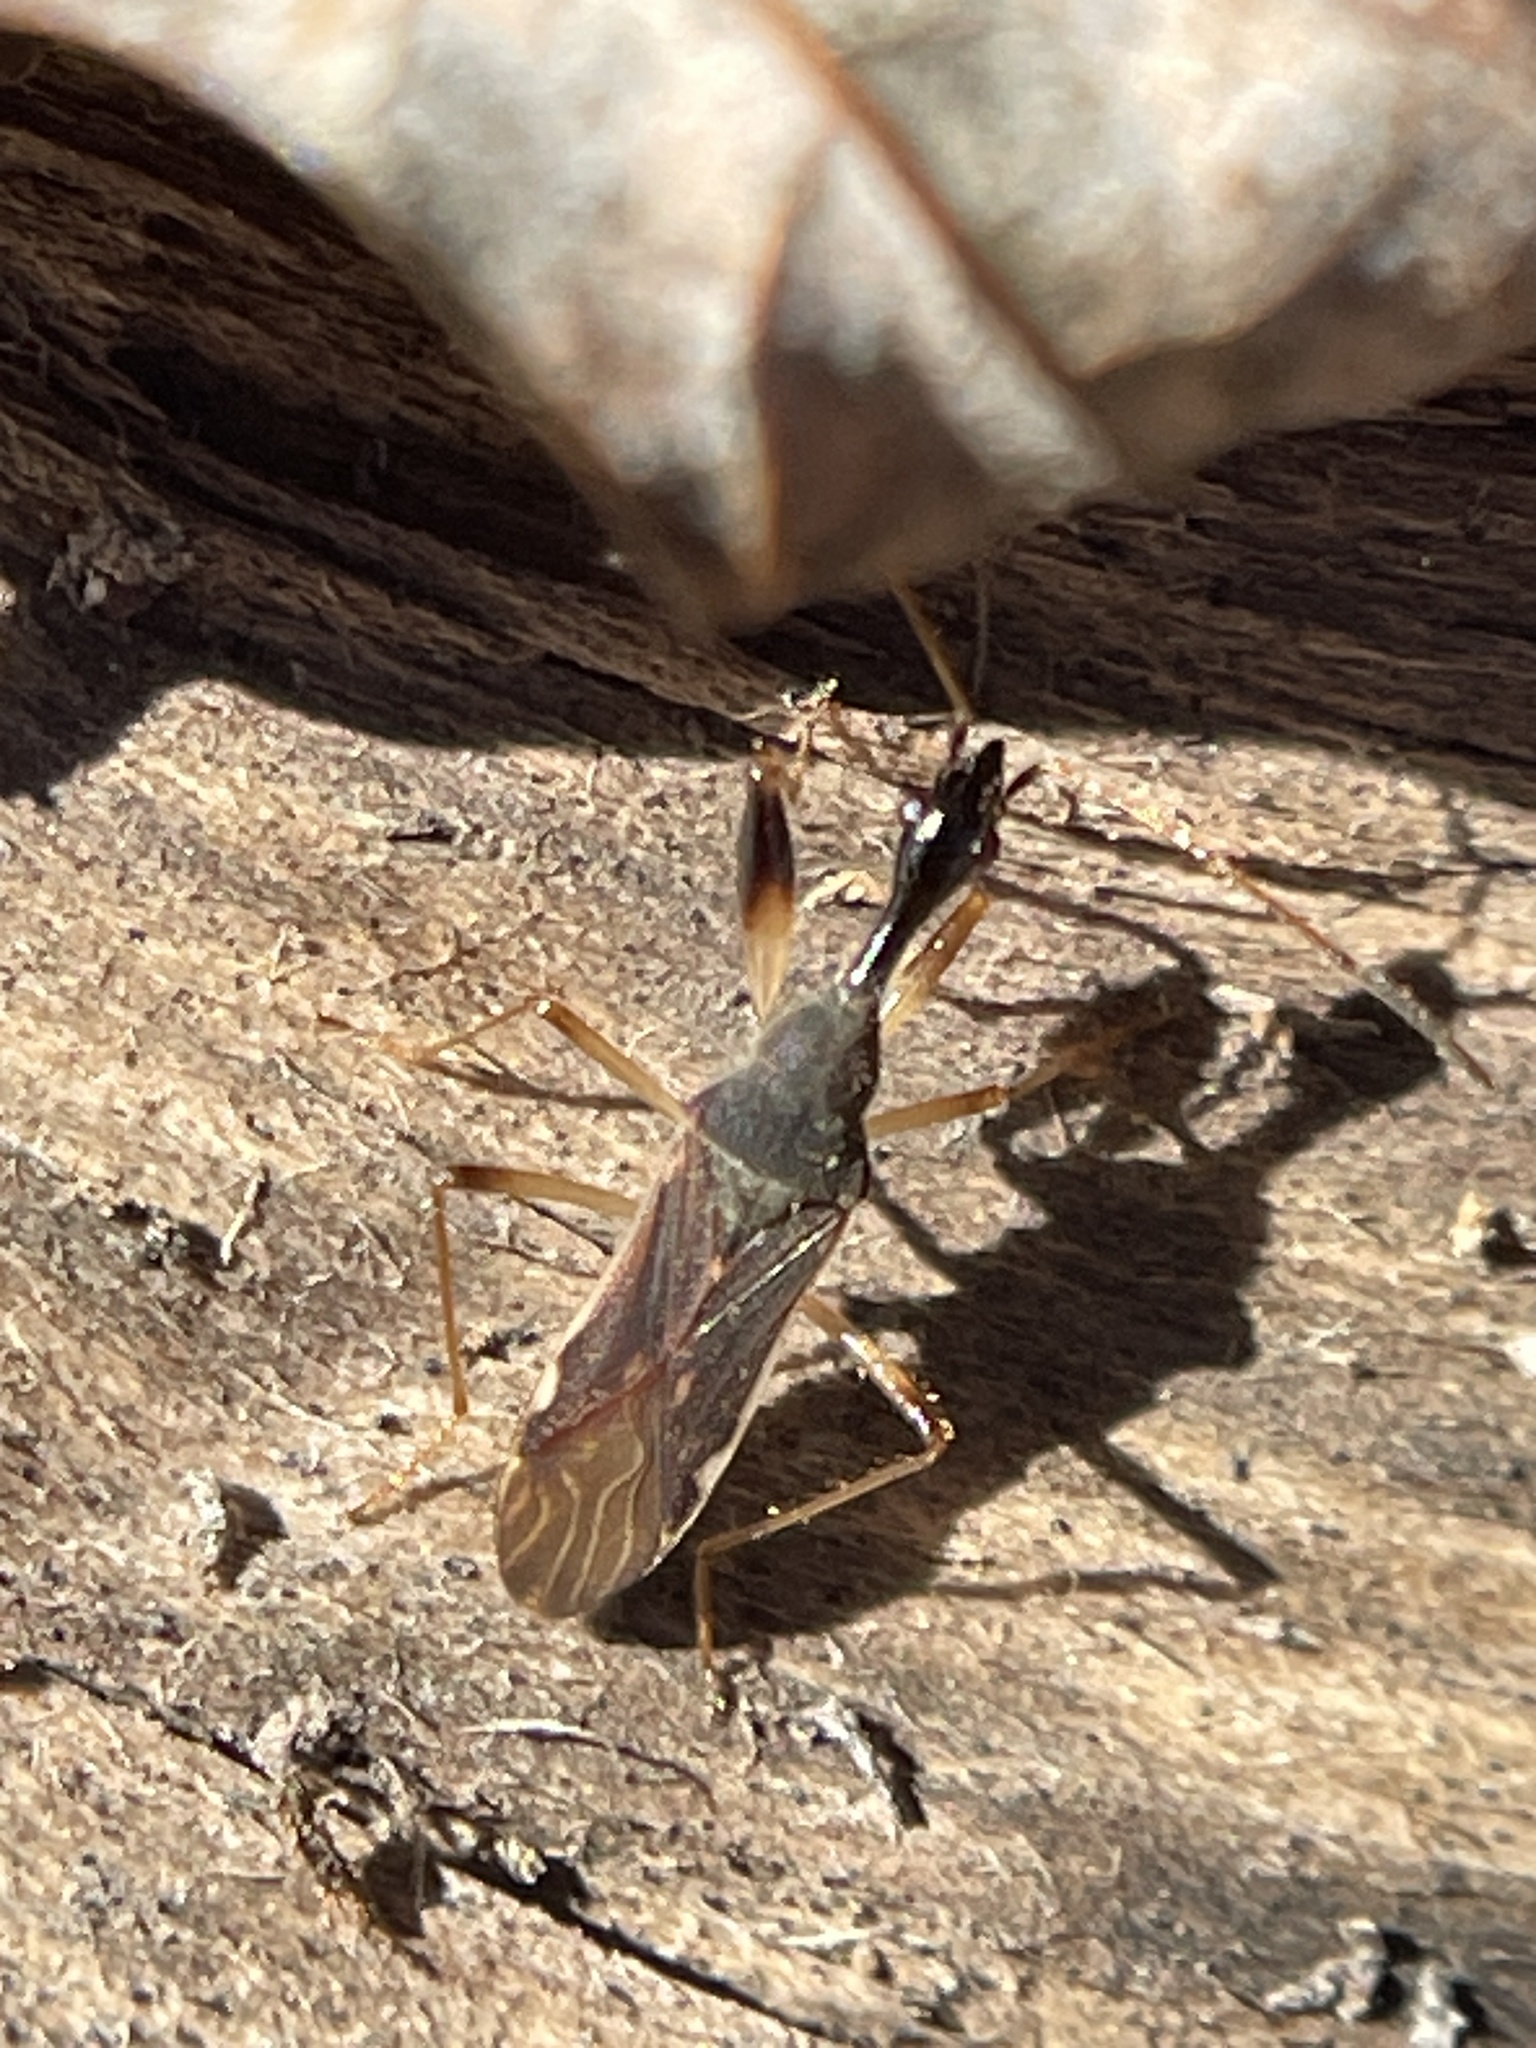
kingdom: Animalia
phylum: Arthropoda
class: Insecta
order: Hemiptera
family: Rhyparochromidae
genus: Myodocha
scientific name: Myodocha serripes
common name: Long-necked seed bug
